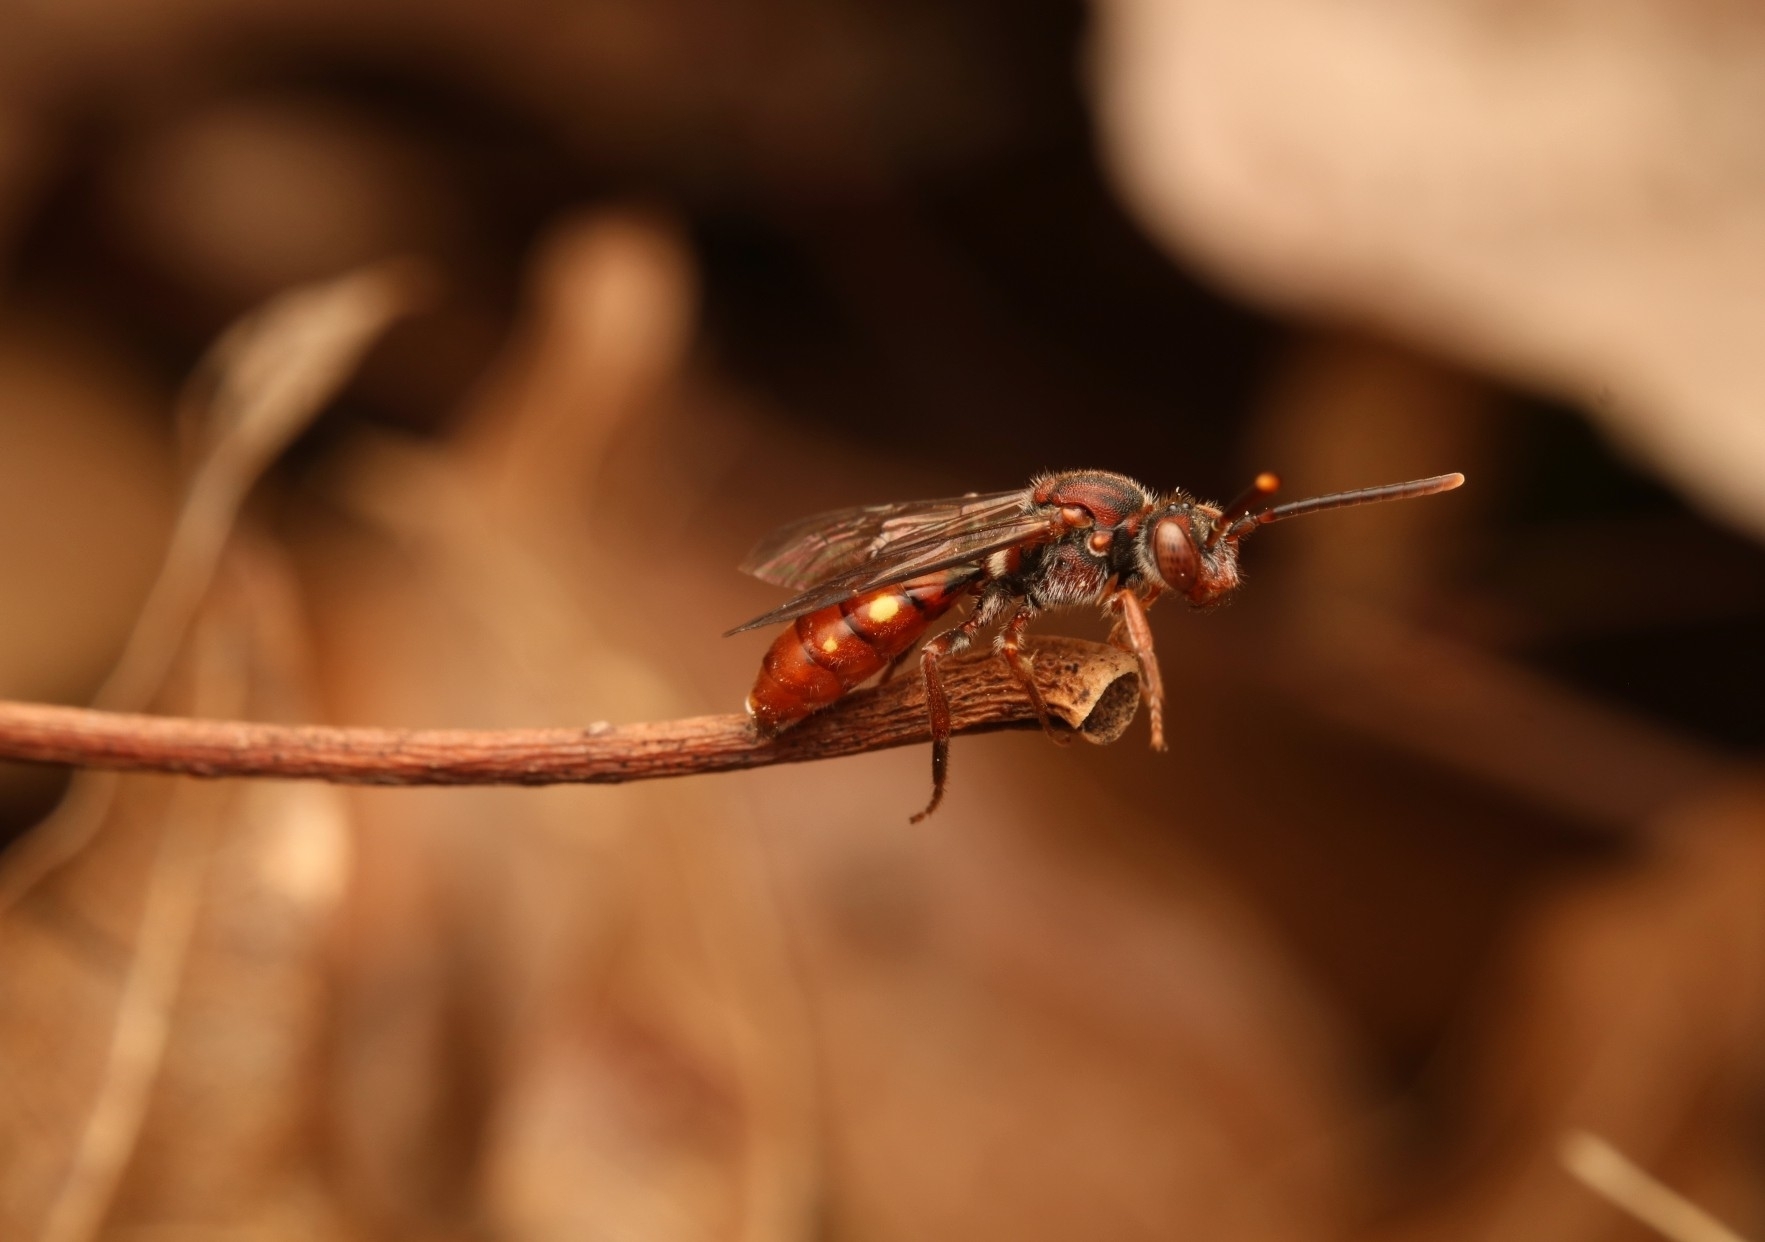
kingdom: Animalia
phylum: Arthropoda
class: Insecta
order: Hymenoptera
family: Apidae
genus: Nomada
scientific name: Nomada
